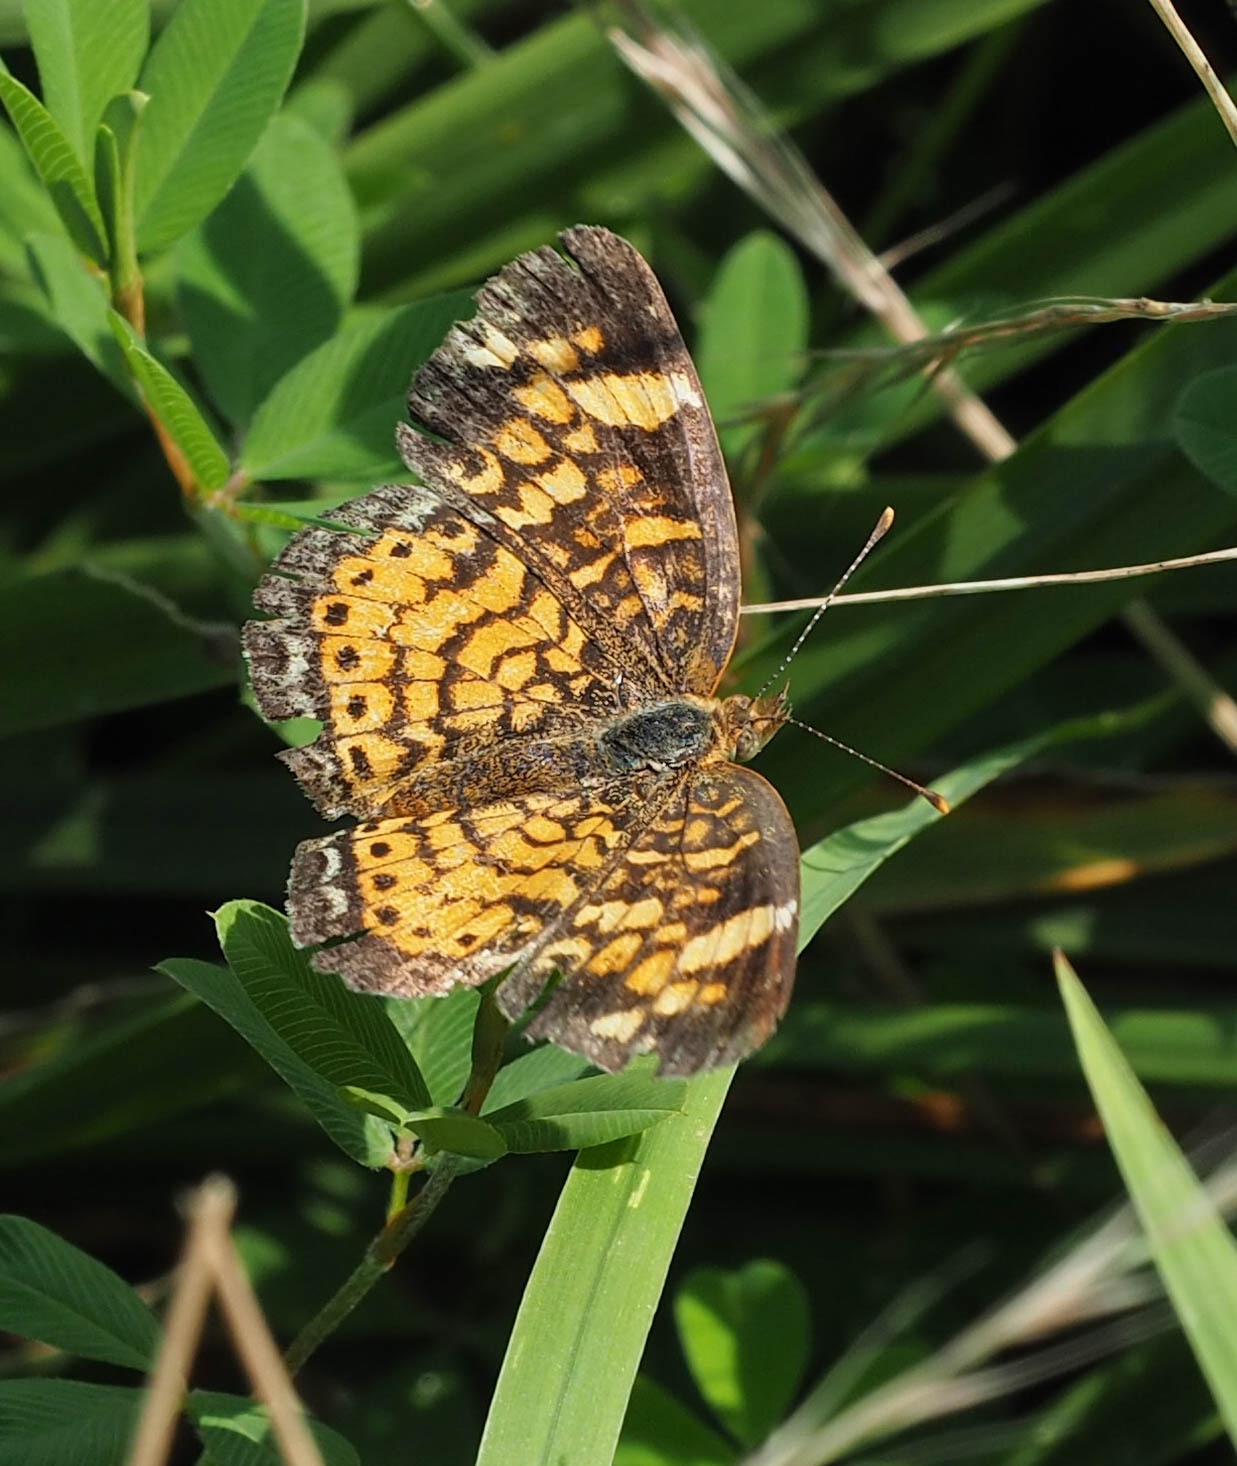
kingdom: Animalia
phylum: Arthropoda
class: Insecta
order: Lepidoptera
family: Nymphalidae
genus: Phyciodes
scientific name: Phyciodes tharos
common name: Pearl crescent
